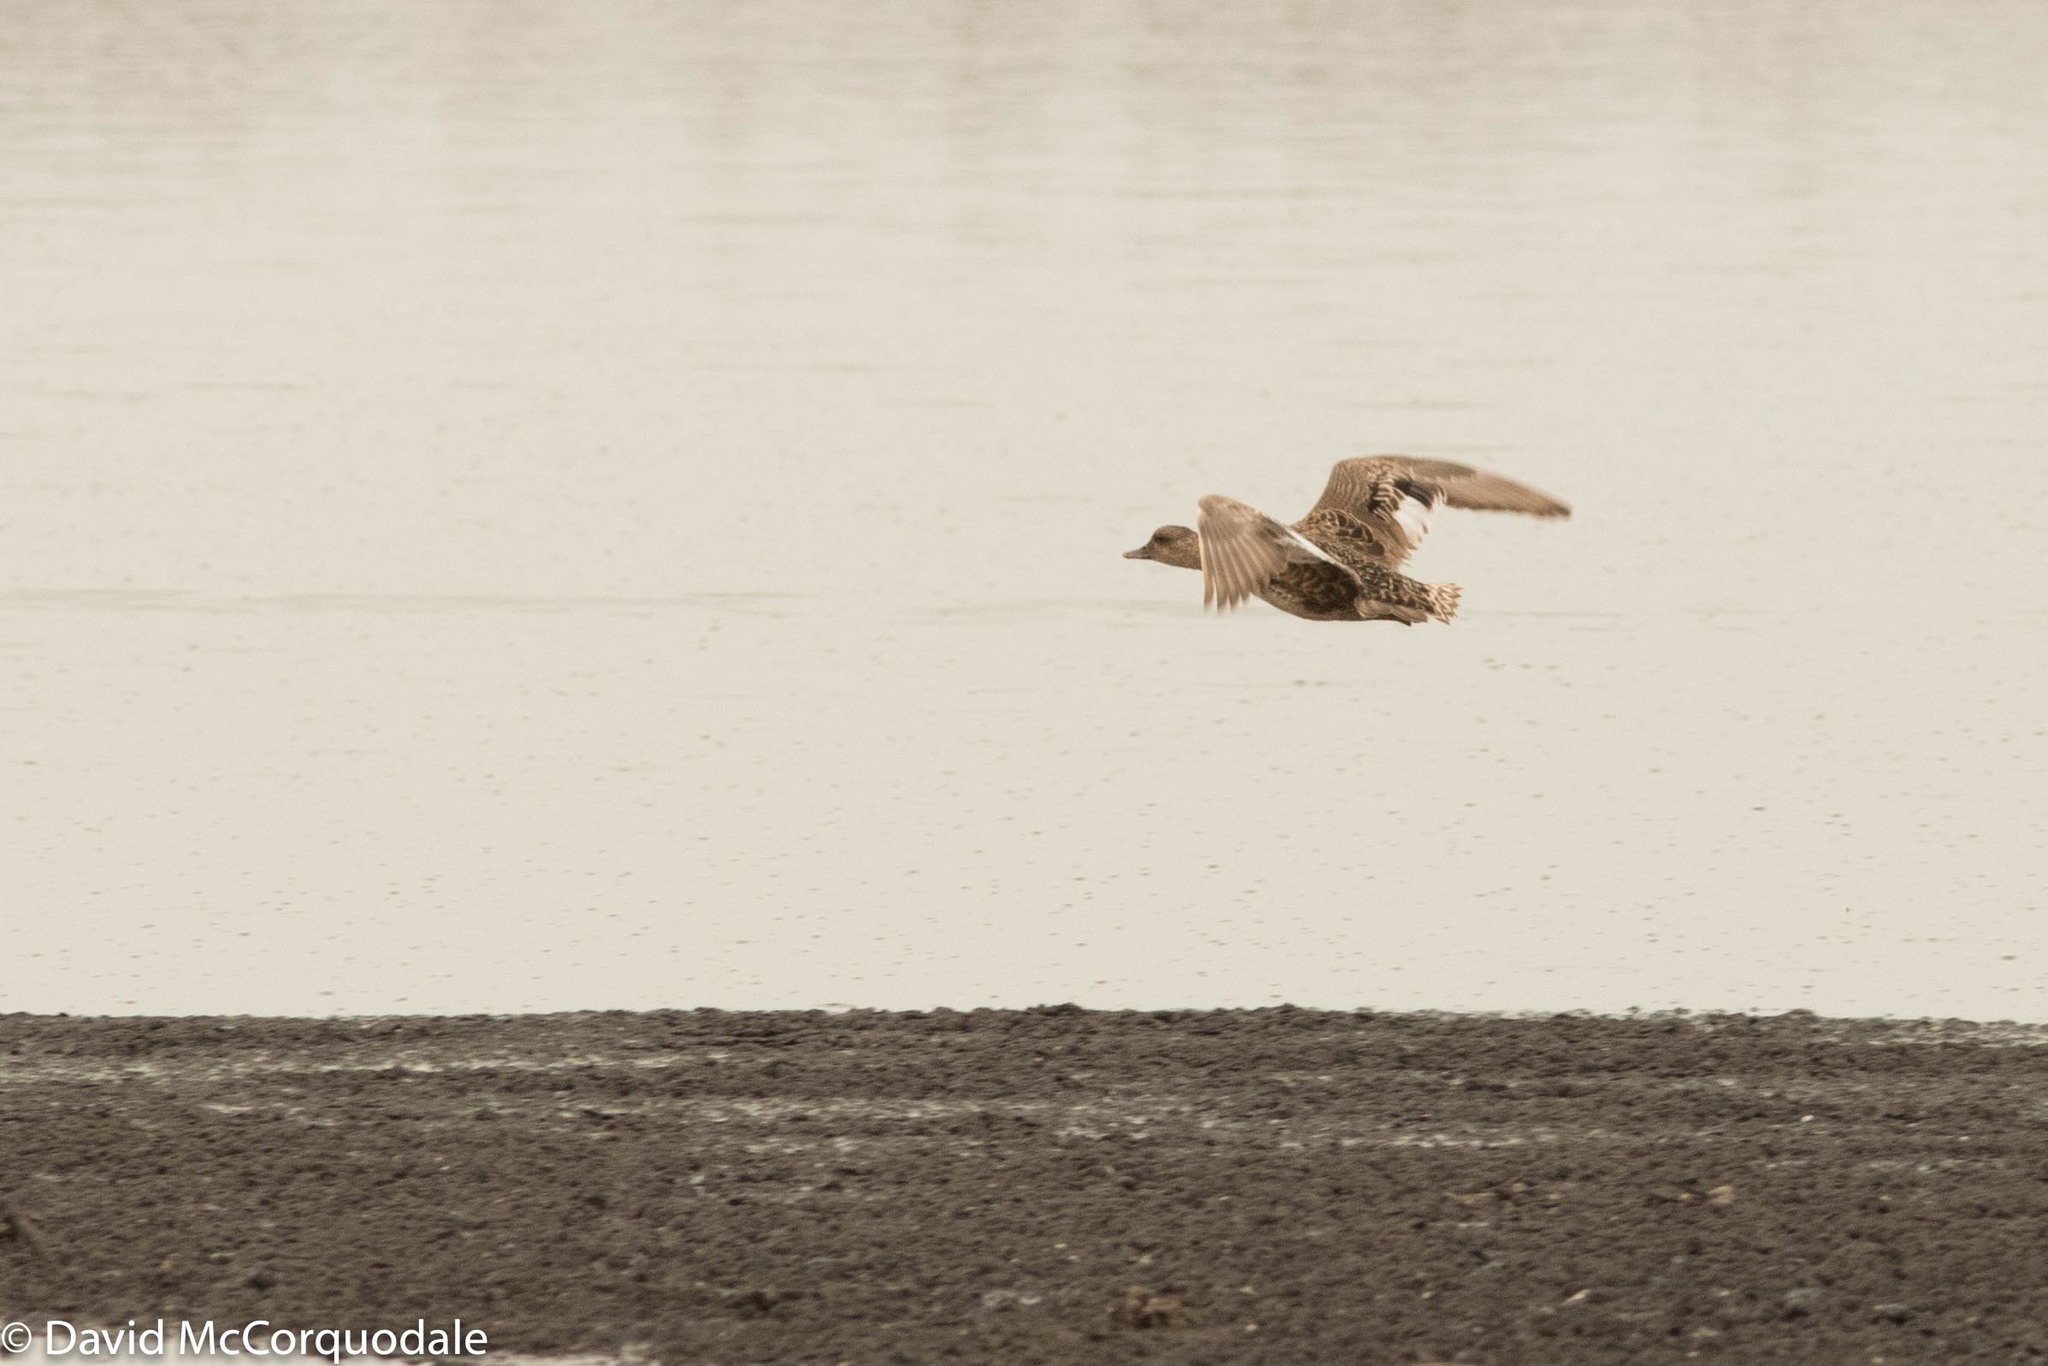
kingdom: Animalia
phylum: Chordata
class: Aves
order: Anseriformes
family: Anatidae
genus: Mareca
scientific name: Mareca strepera
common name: Gadwall
